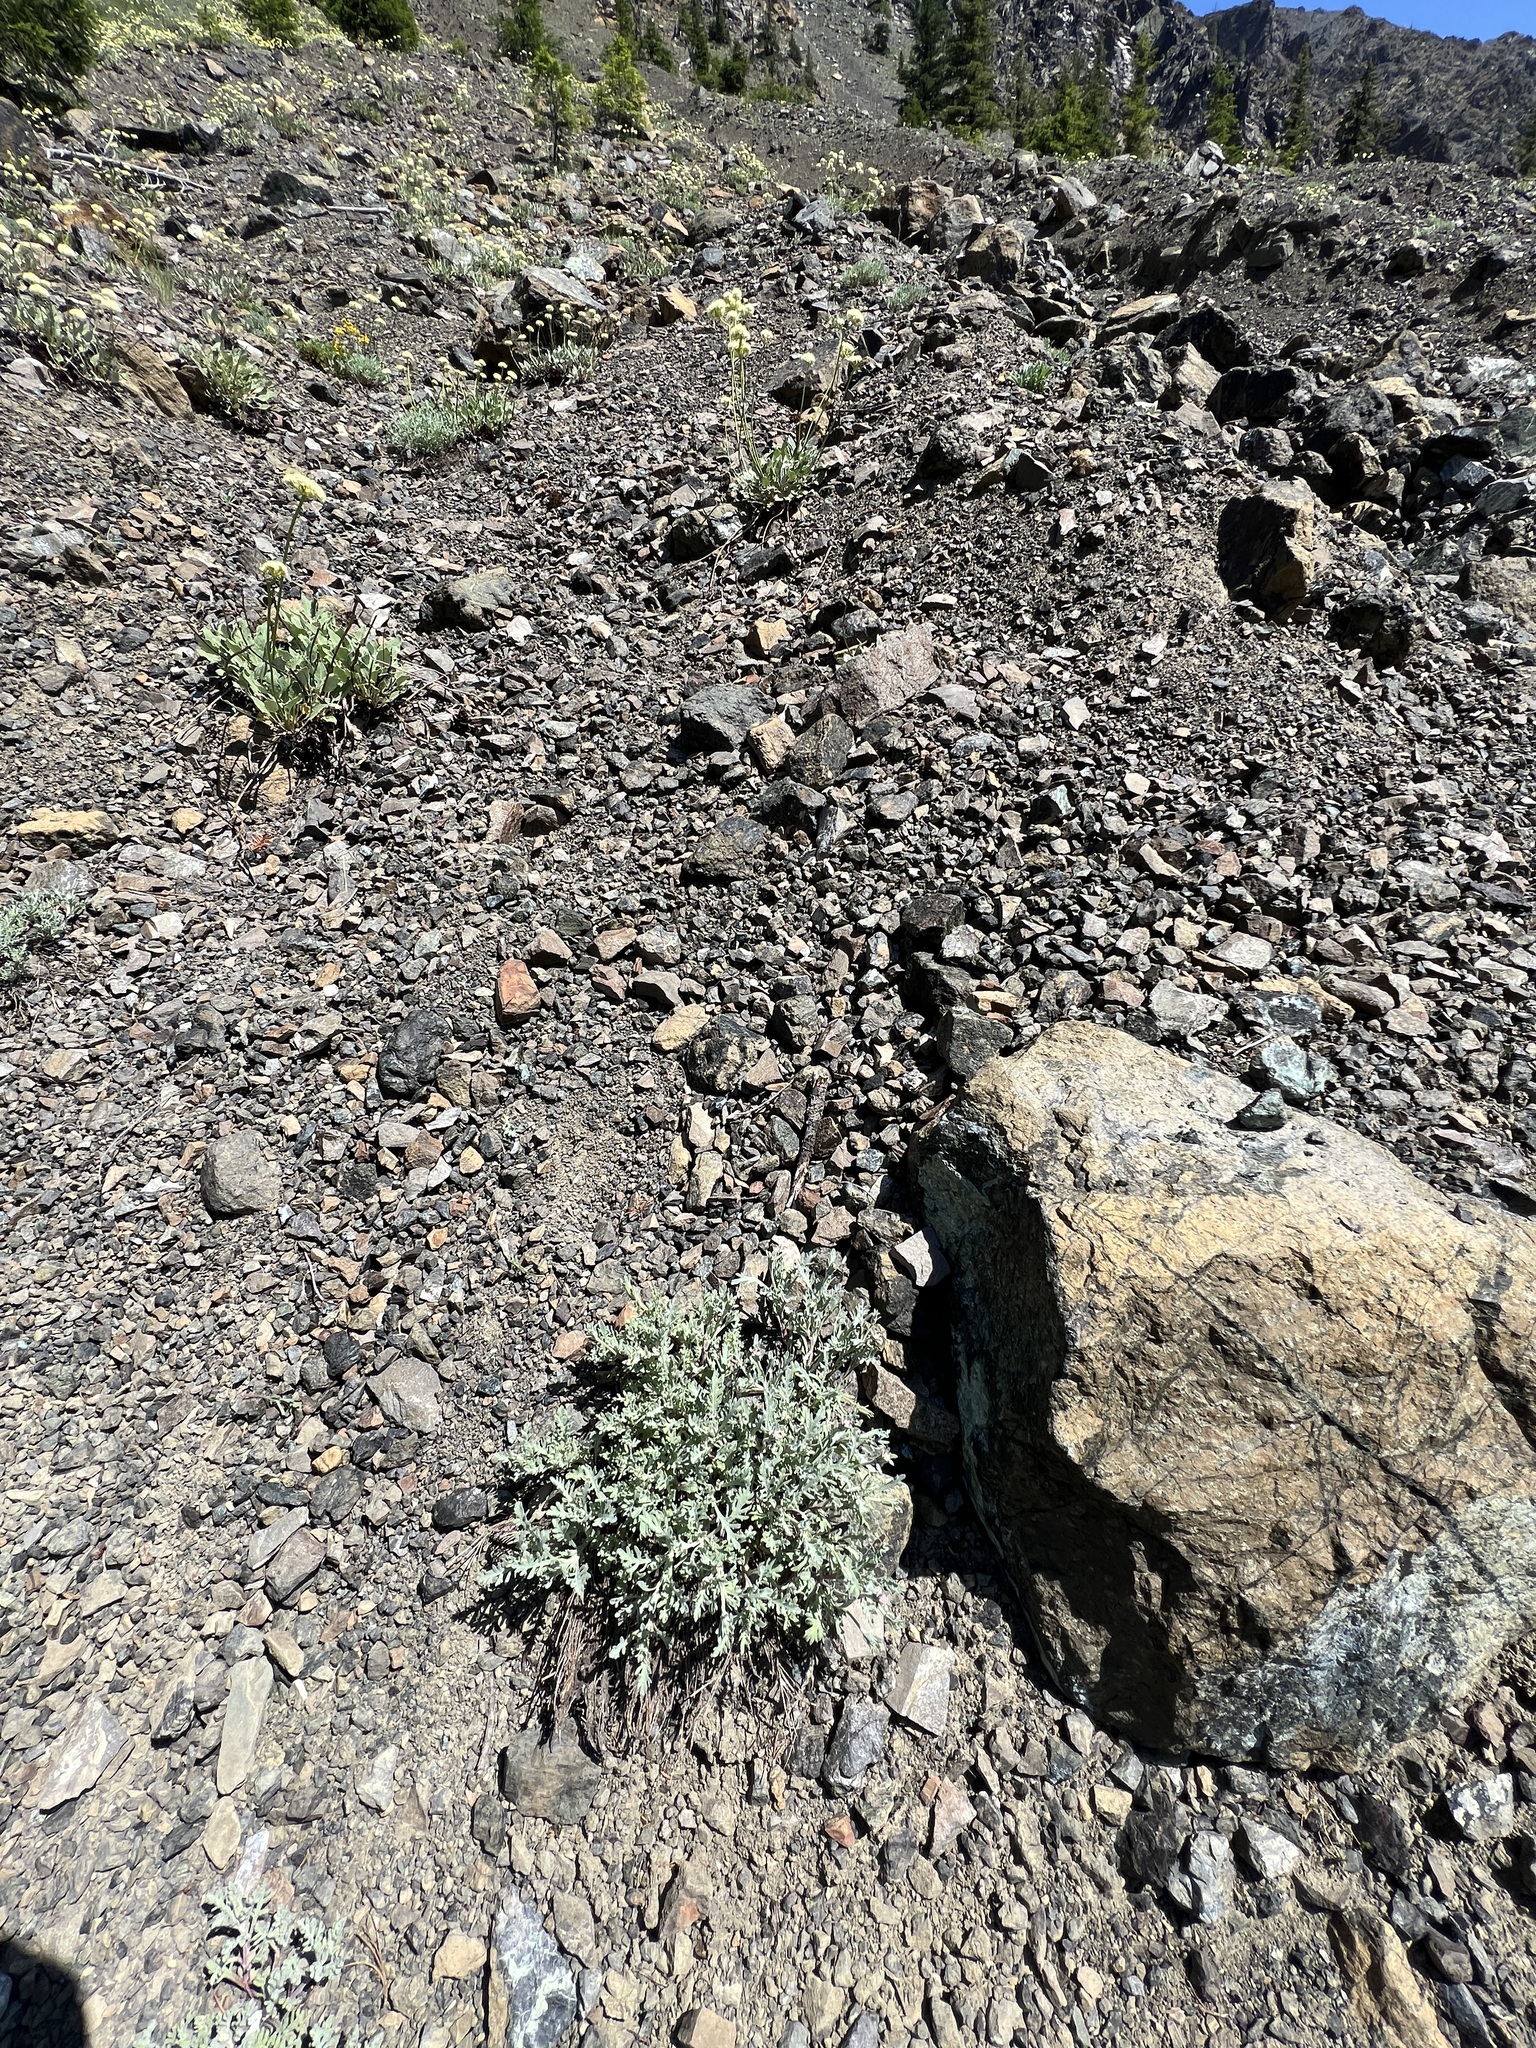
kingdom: Plantae
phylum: Tracheophyta
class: Magnoliopsida
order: Asterales
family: Asteraceae
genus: Chaenactis
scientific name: Chaenactis thompsonii
